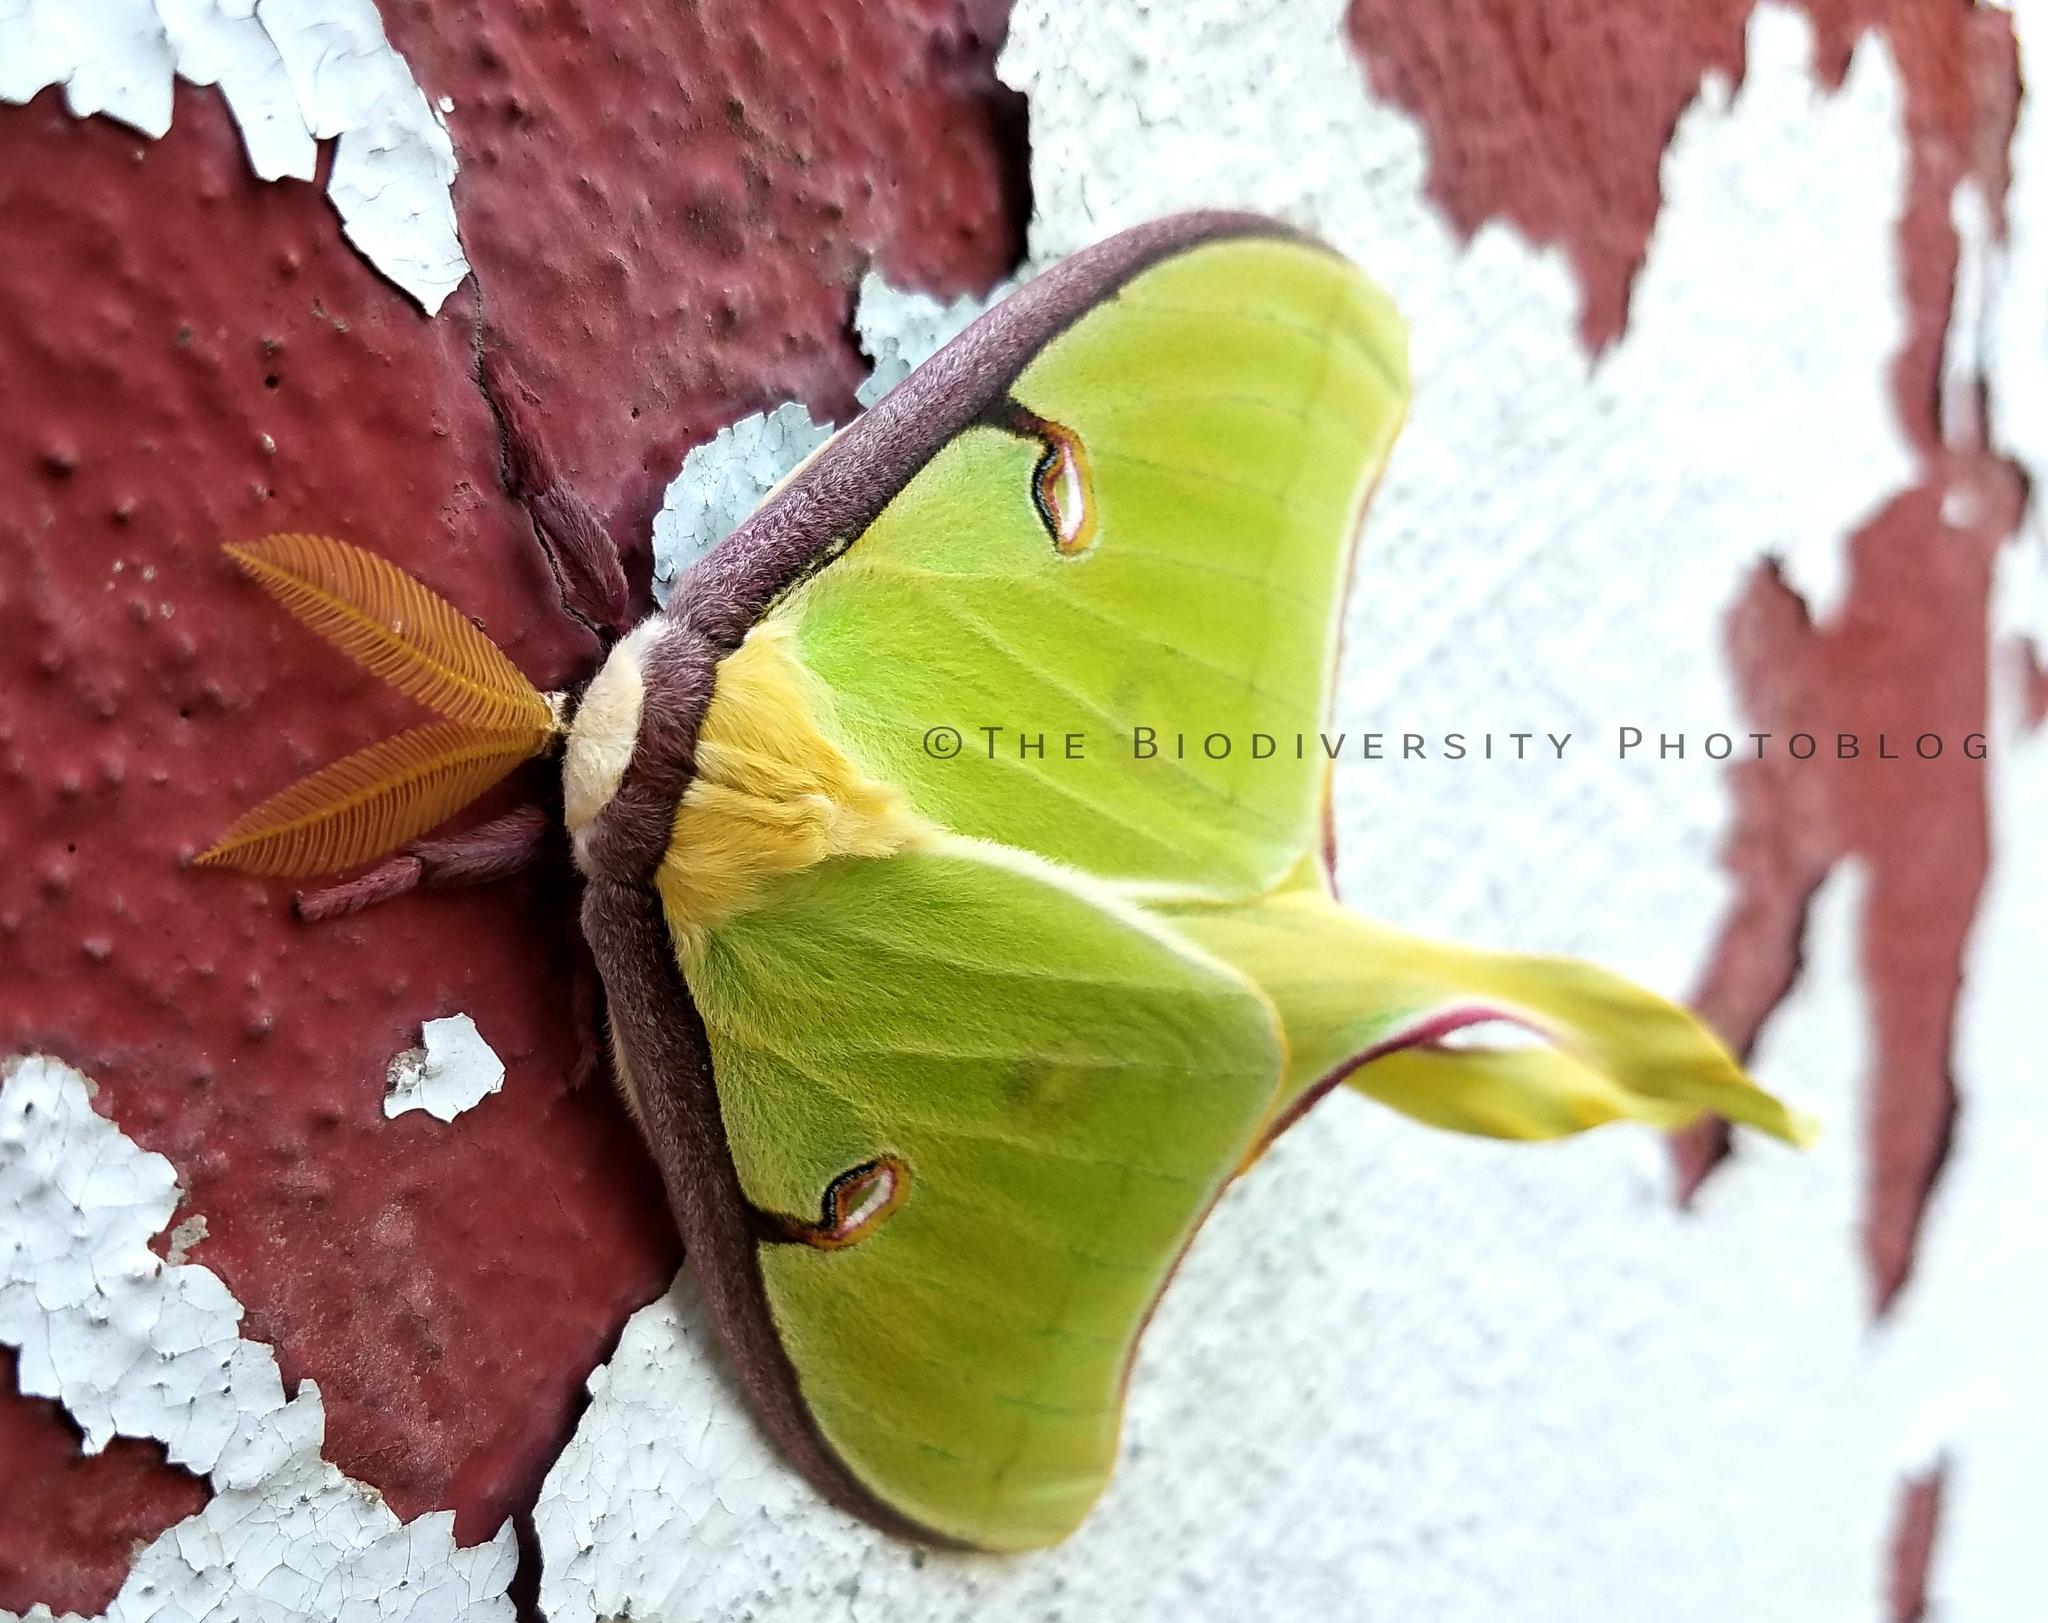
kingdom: Animalia
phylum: Arthropoda
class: Insecta
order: Lepidoptera
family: Saturniidae
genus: Actias
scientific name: Actias luna
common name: Luna moth
